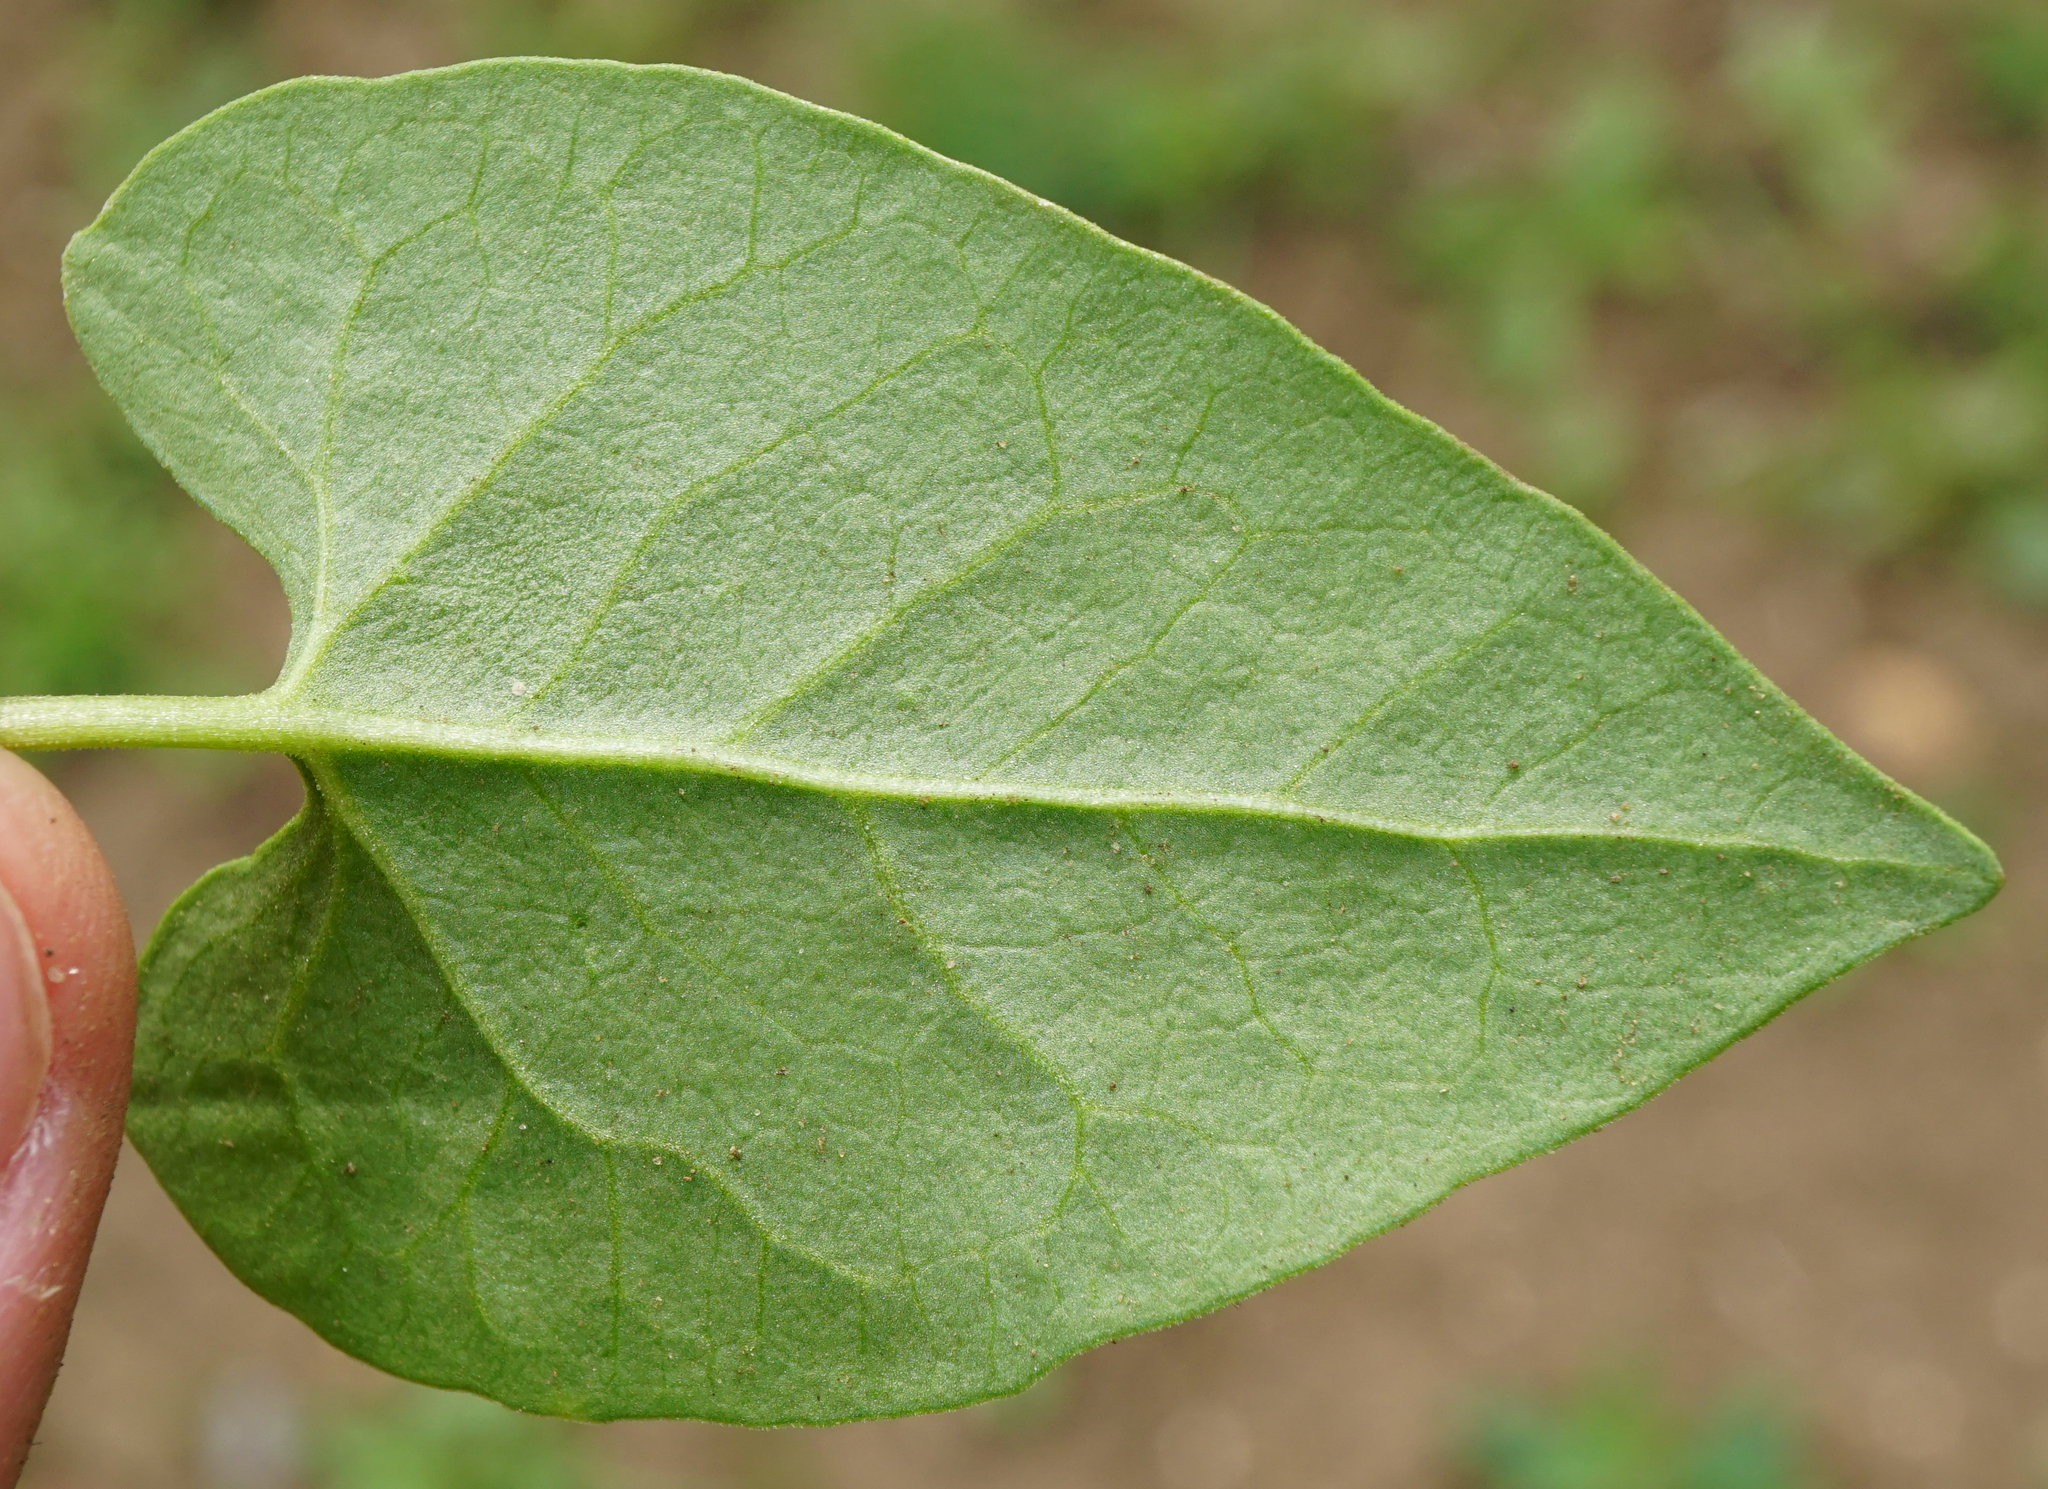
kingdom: Plantae
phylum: Tracheophyta
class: Magnoliopsida
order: Caryophyllales
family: Polygonaceae
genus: Fallopia
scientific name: Fallopia convolvulus
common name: Black bindweed
